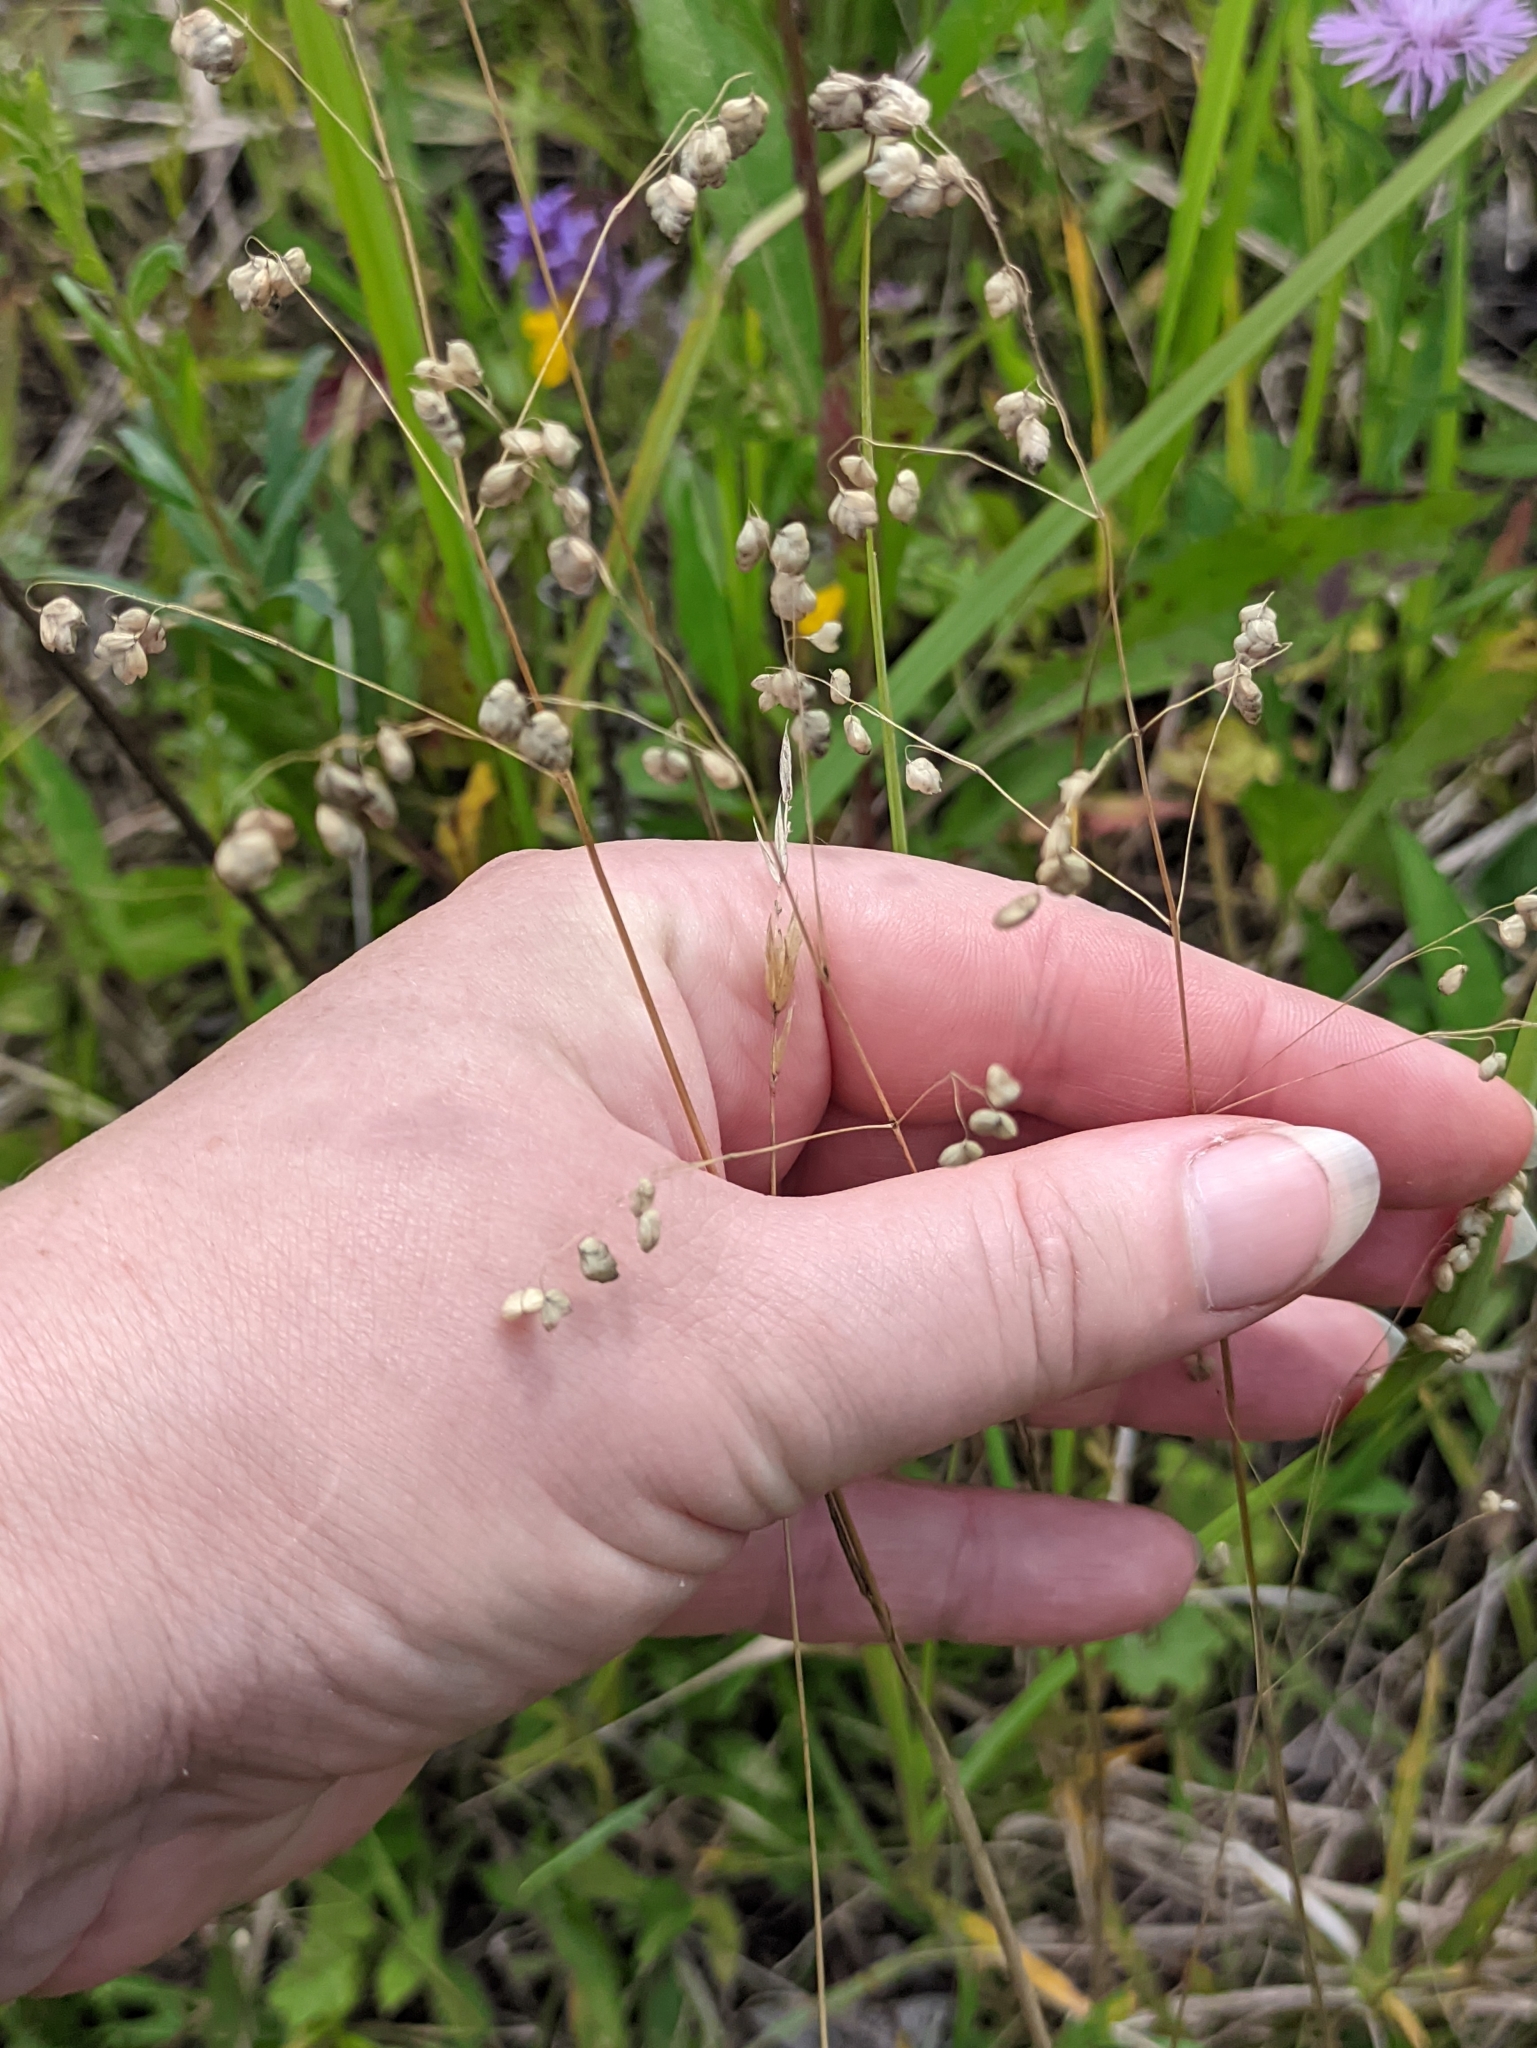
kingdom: Plantae
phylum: Tracheophyta
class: Liliopsida
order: Poales
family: Poaceae
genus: Briza
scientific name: Briza media
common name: Quaking grass
